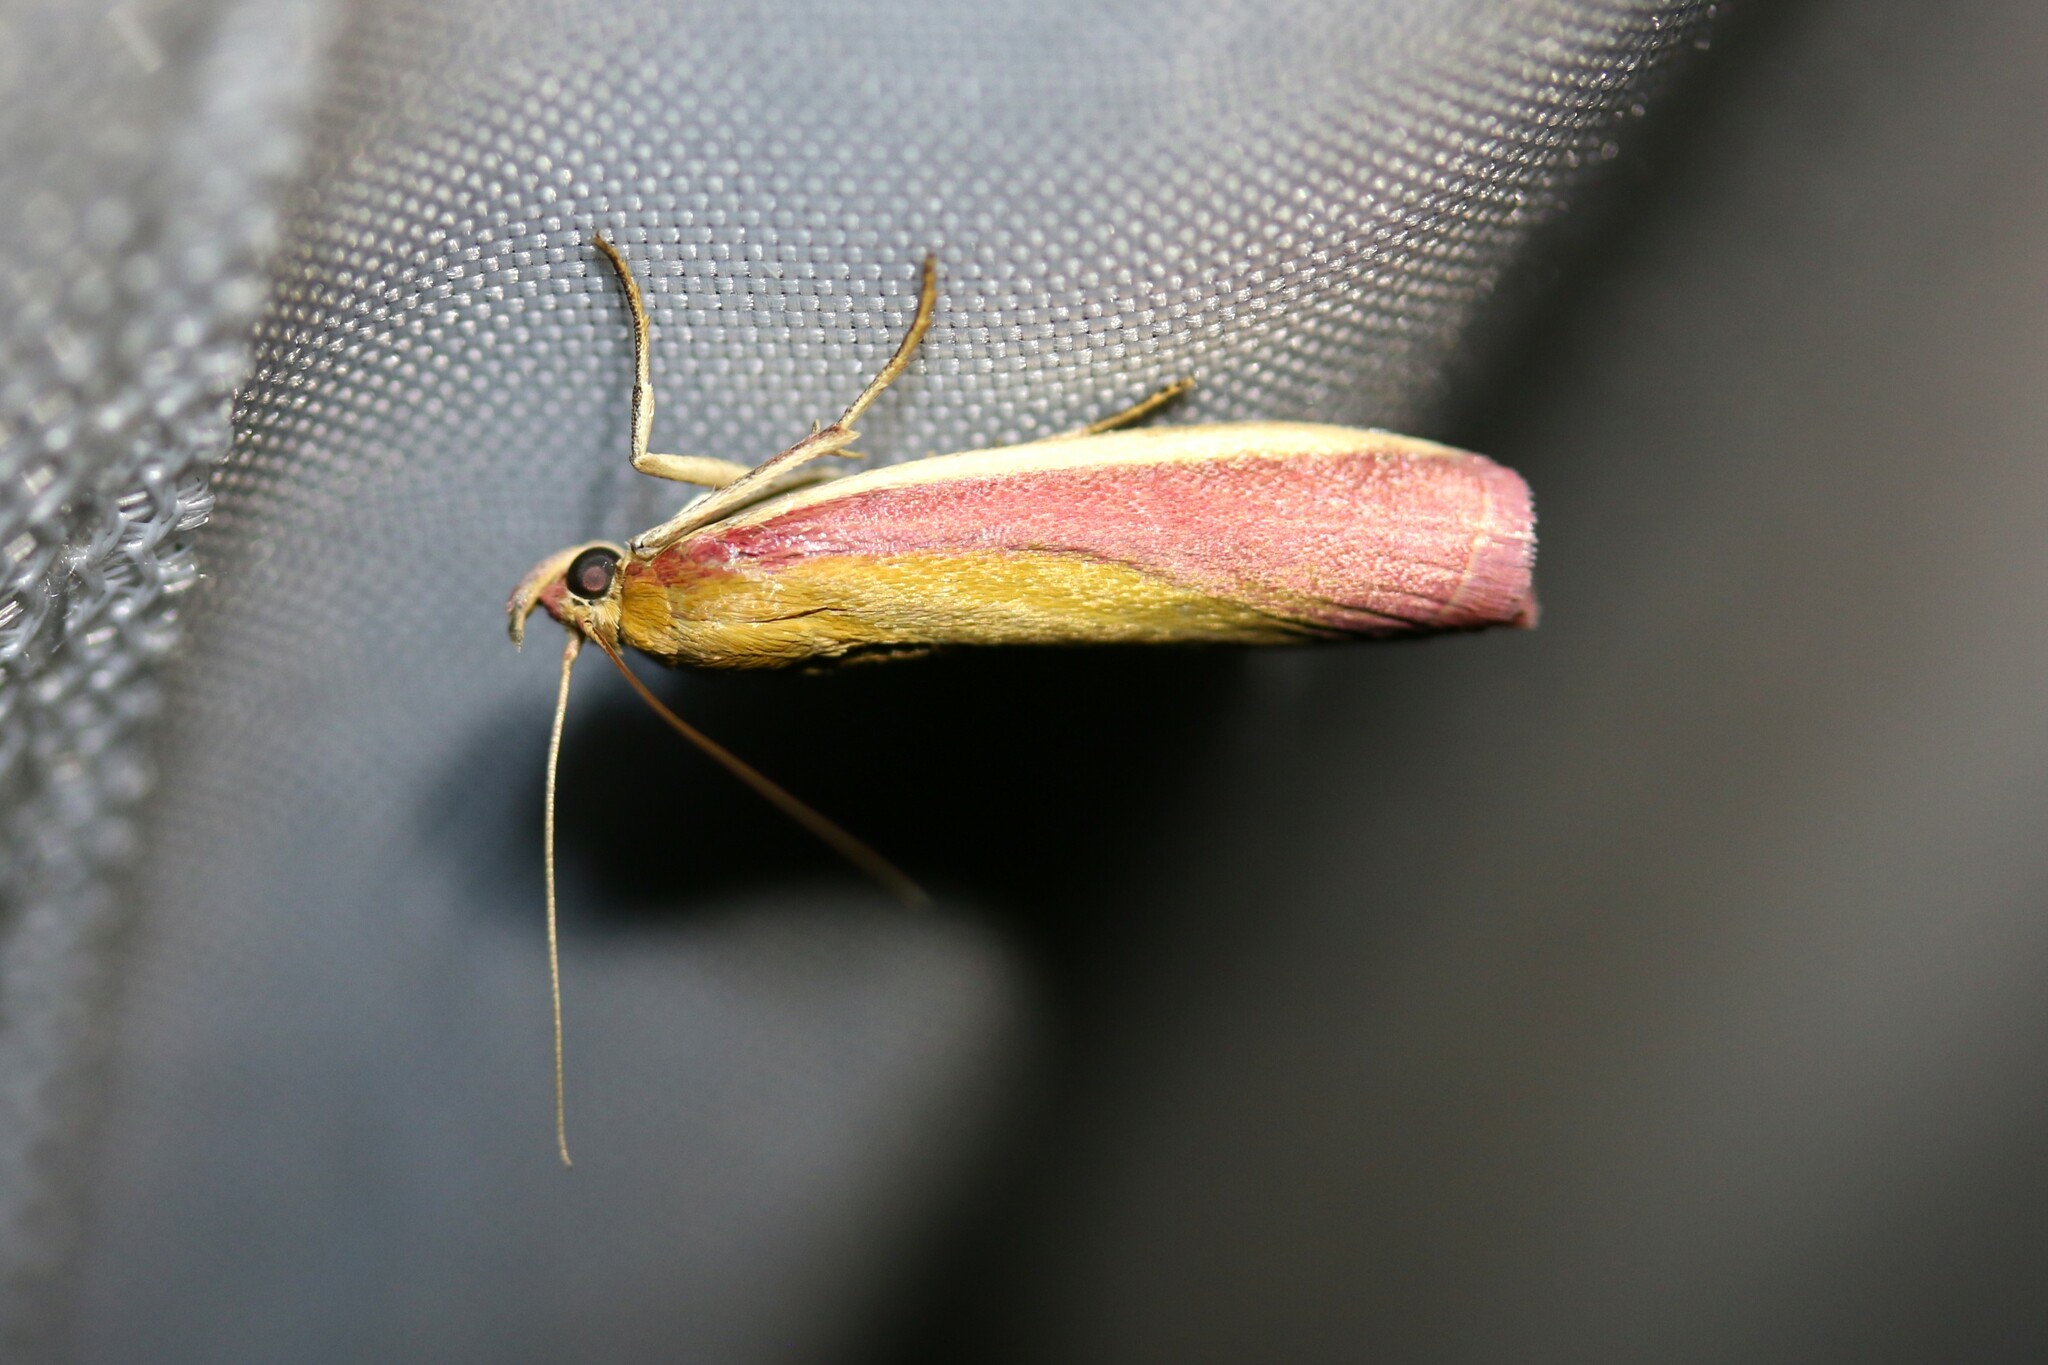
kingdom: Animalia
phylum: Arthropoda
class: Insecta
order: Lepidoptera
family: Pyralidae
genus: Oncocera
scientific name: Oncocera semirubella
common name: Rosy-striped knot-horn
